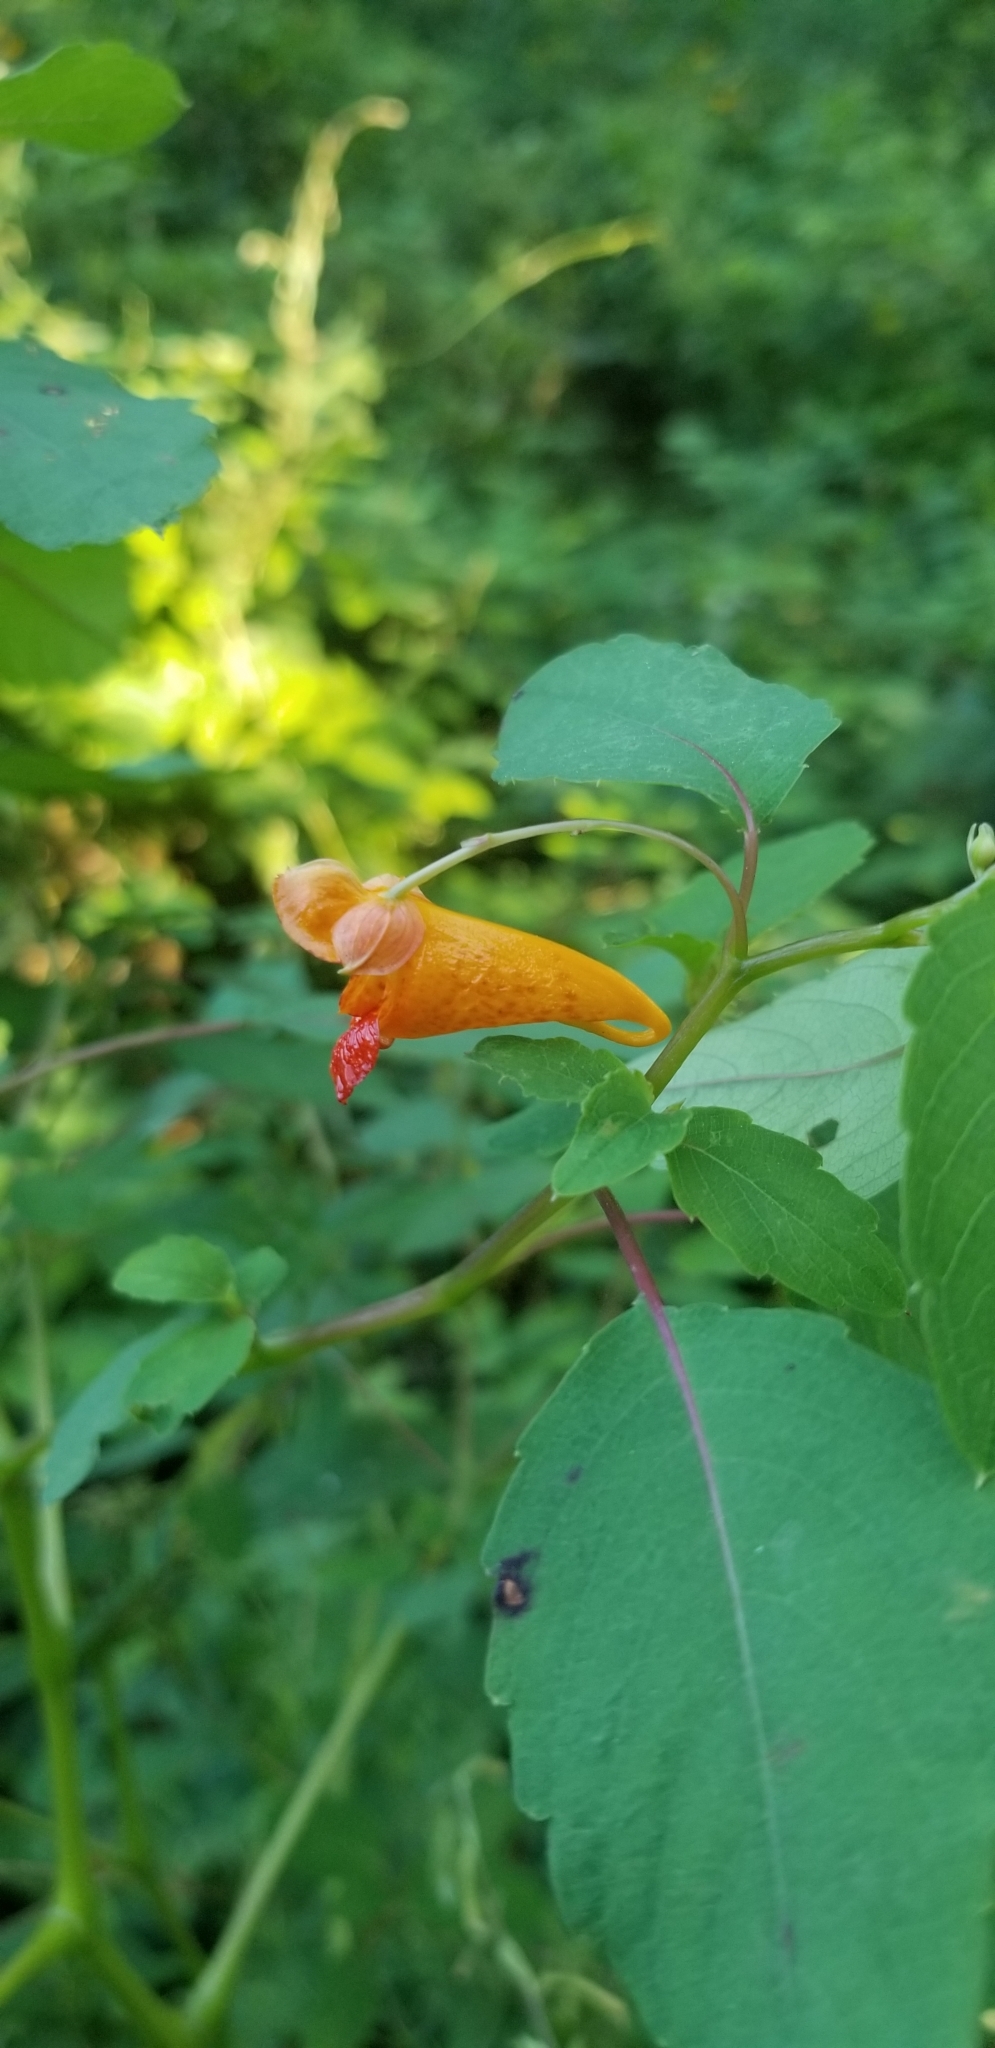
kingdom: Plantae
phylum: Tracheophyta
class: Magnoliopsida
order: Ericales
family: Balsaminaceae
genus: Impatiens
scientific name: Impatiens capensis
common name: Orange balsam
